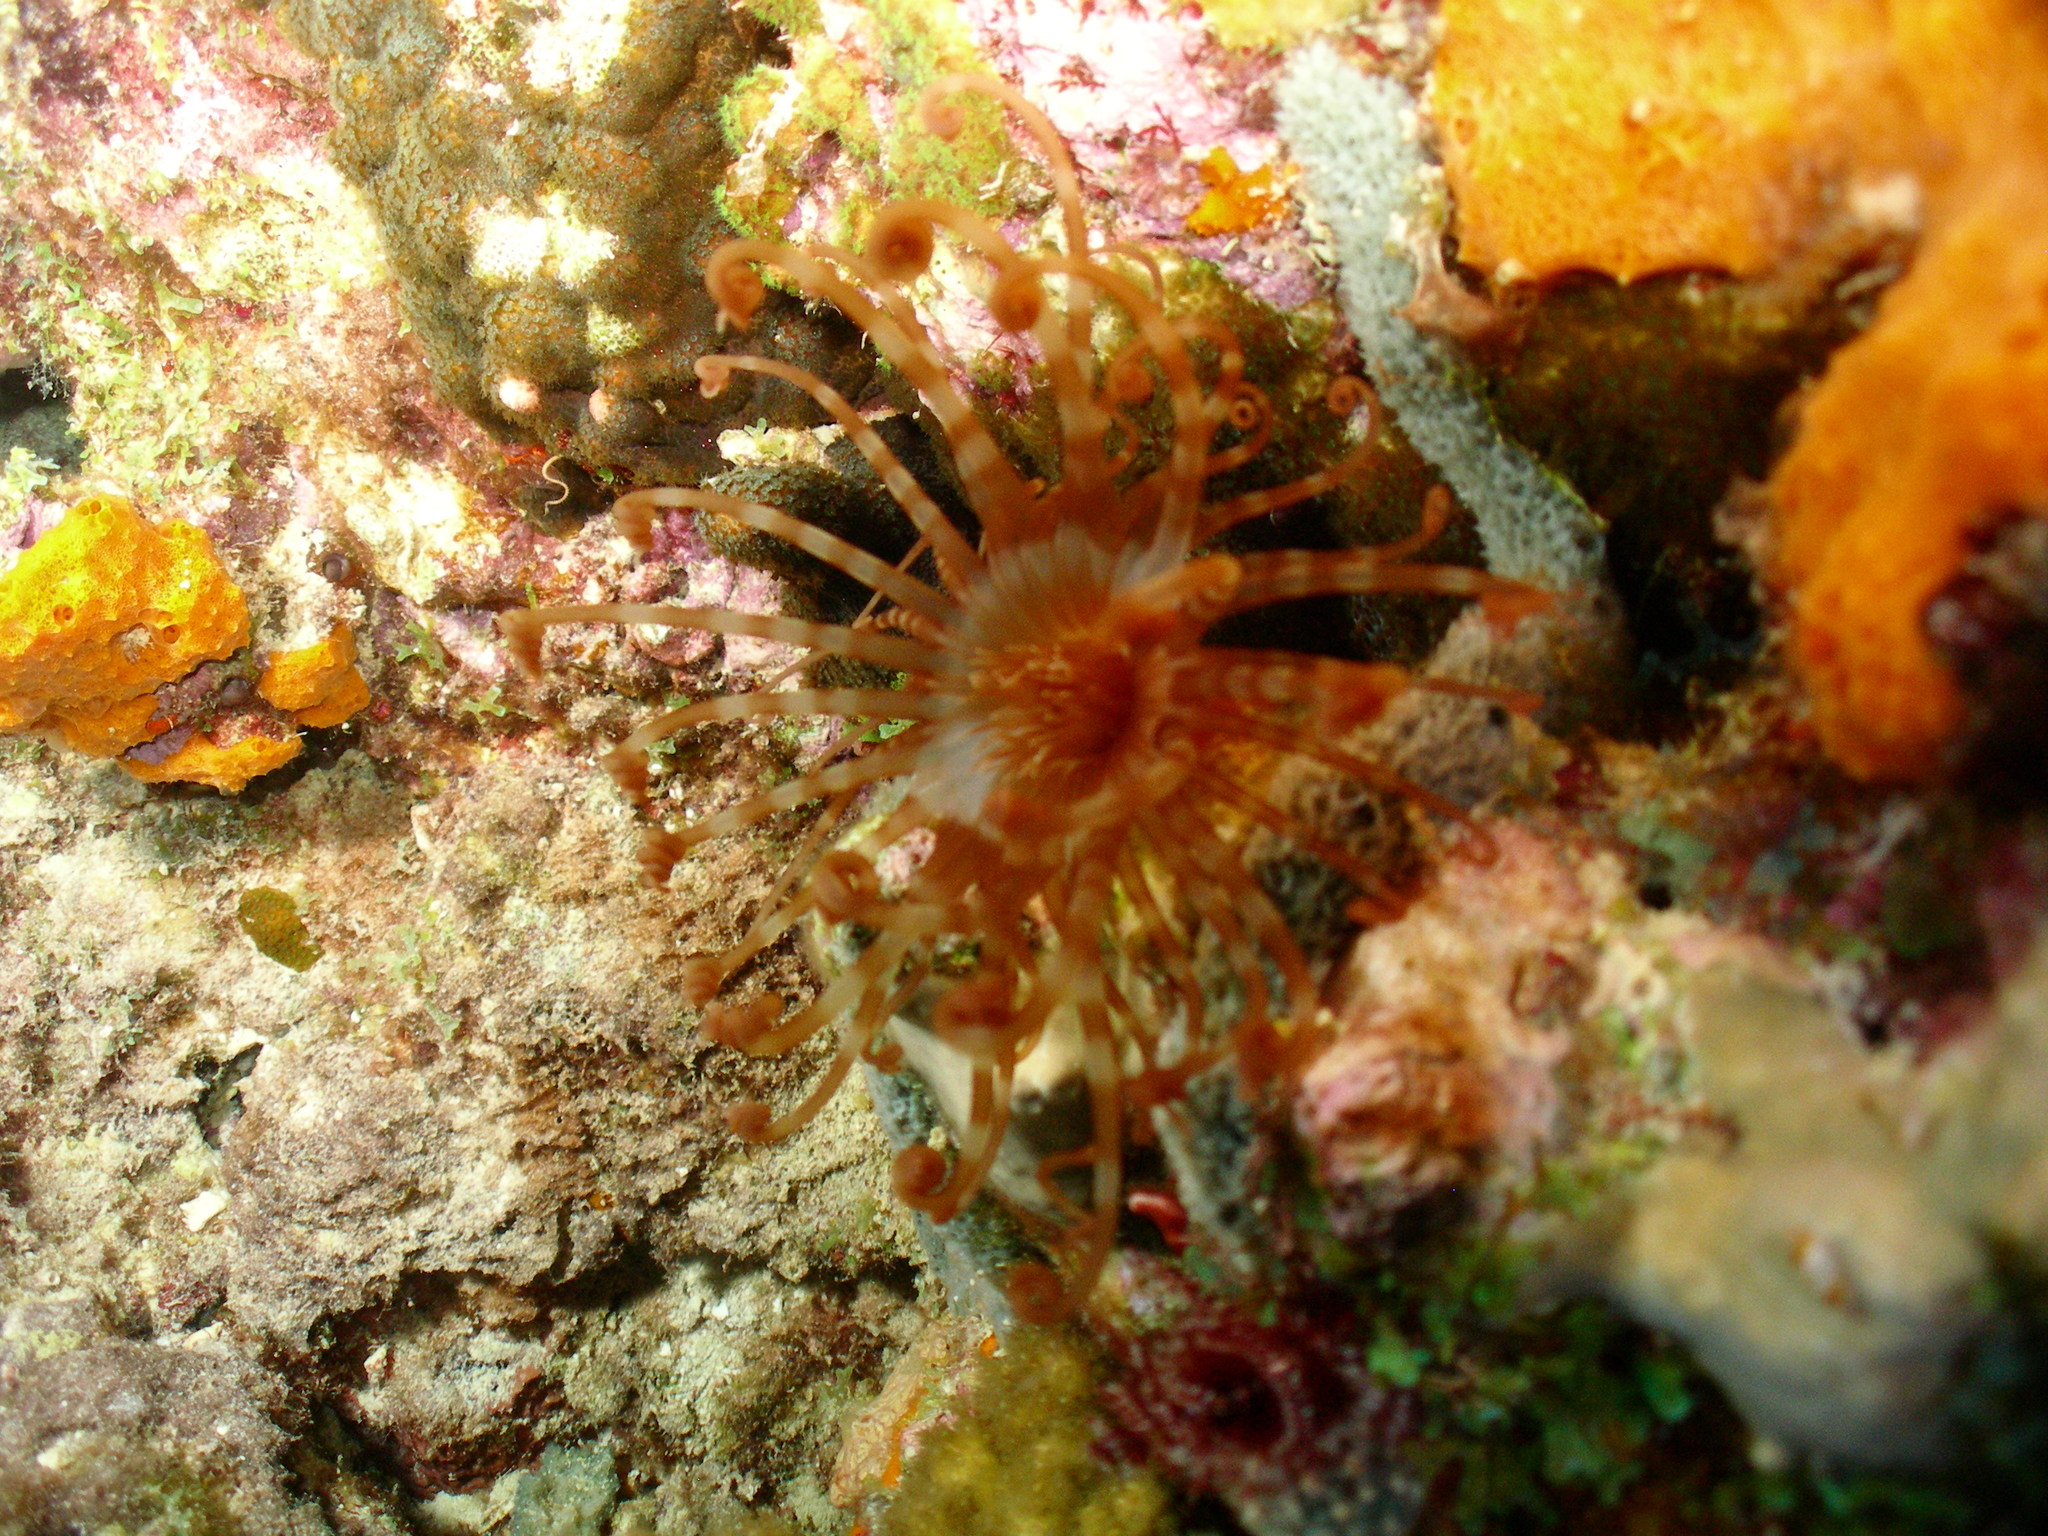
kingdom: Animalia
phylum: Cnidaria
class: Anthozoa
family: Arachnactidae
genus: Isarachnanthus
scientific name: Isarachnanthus nocturnus
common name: Banded tube-dwelling anemone
